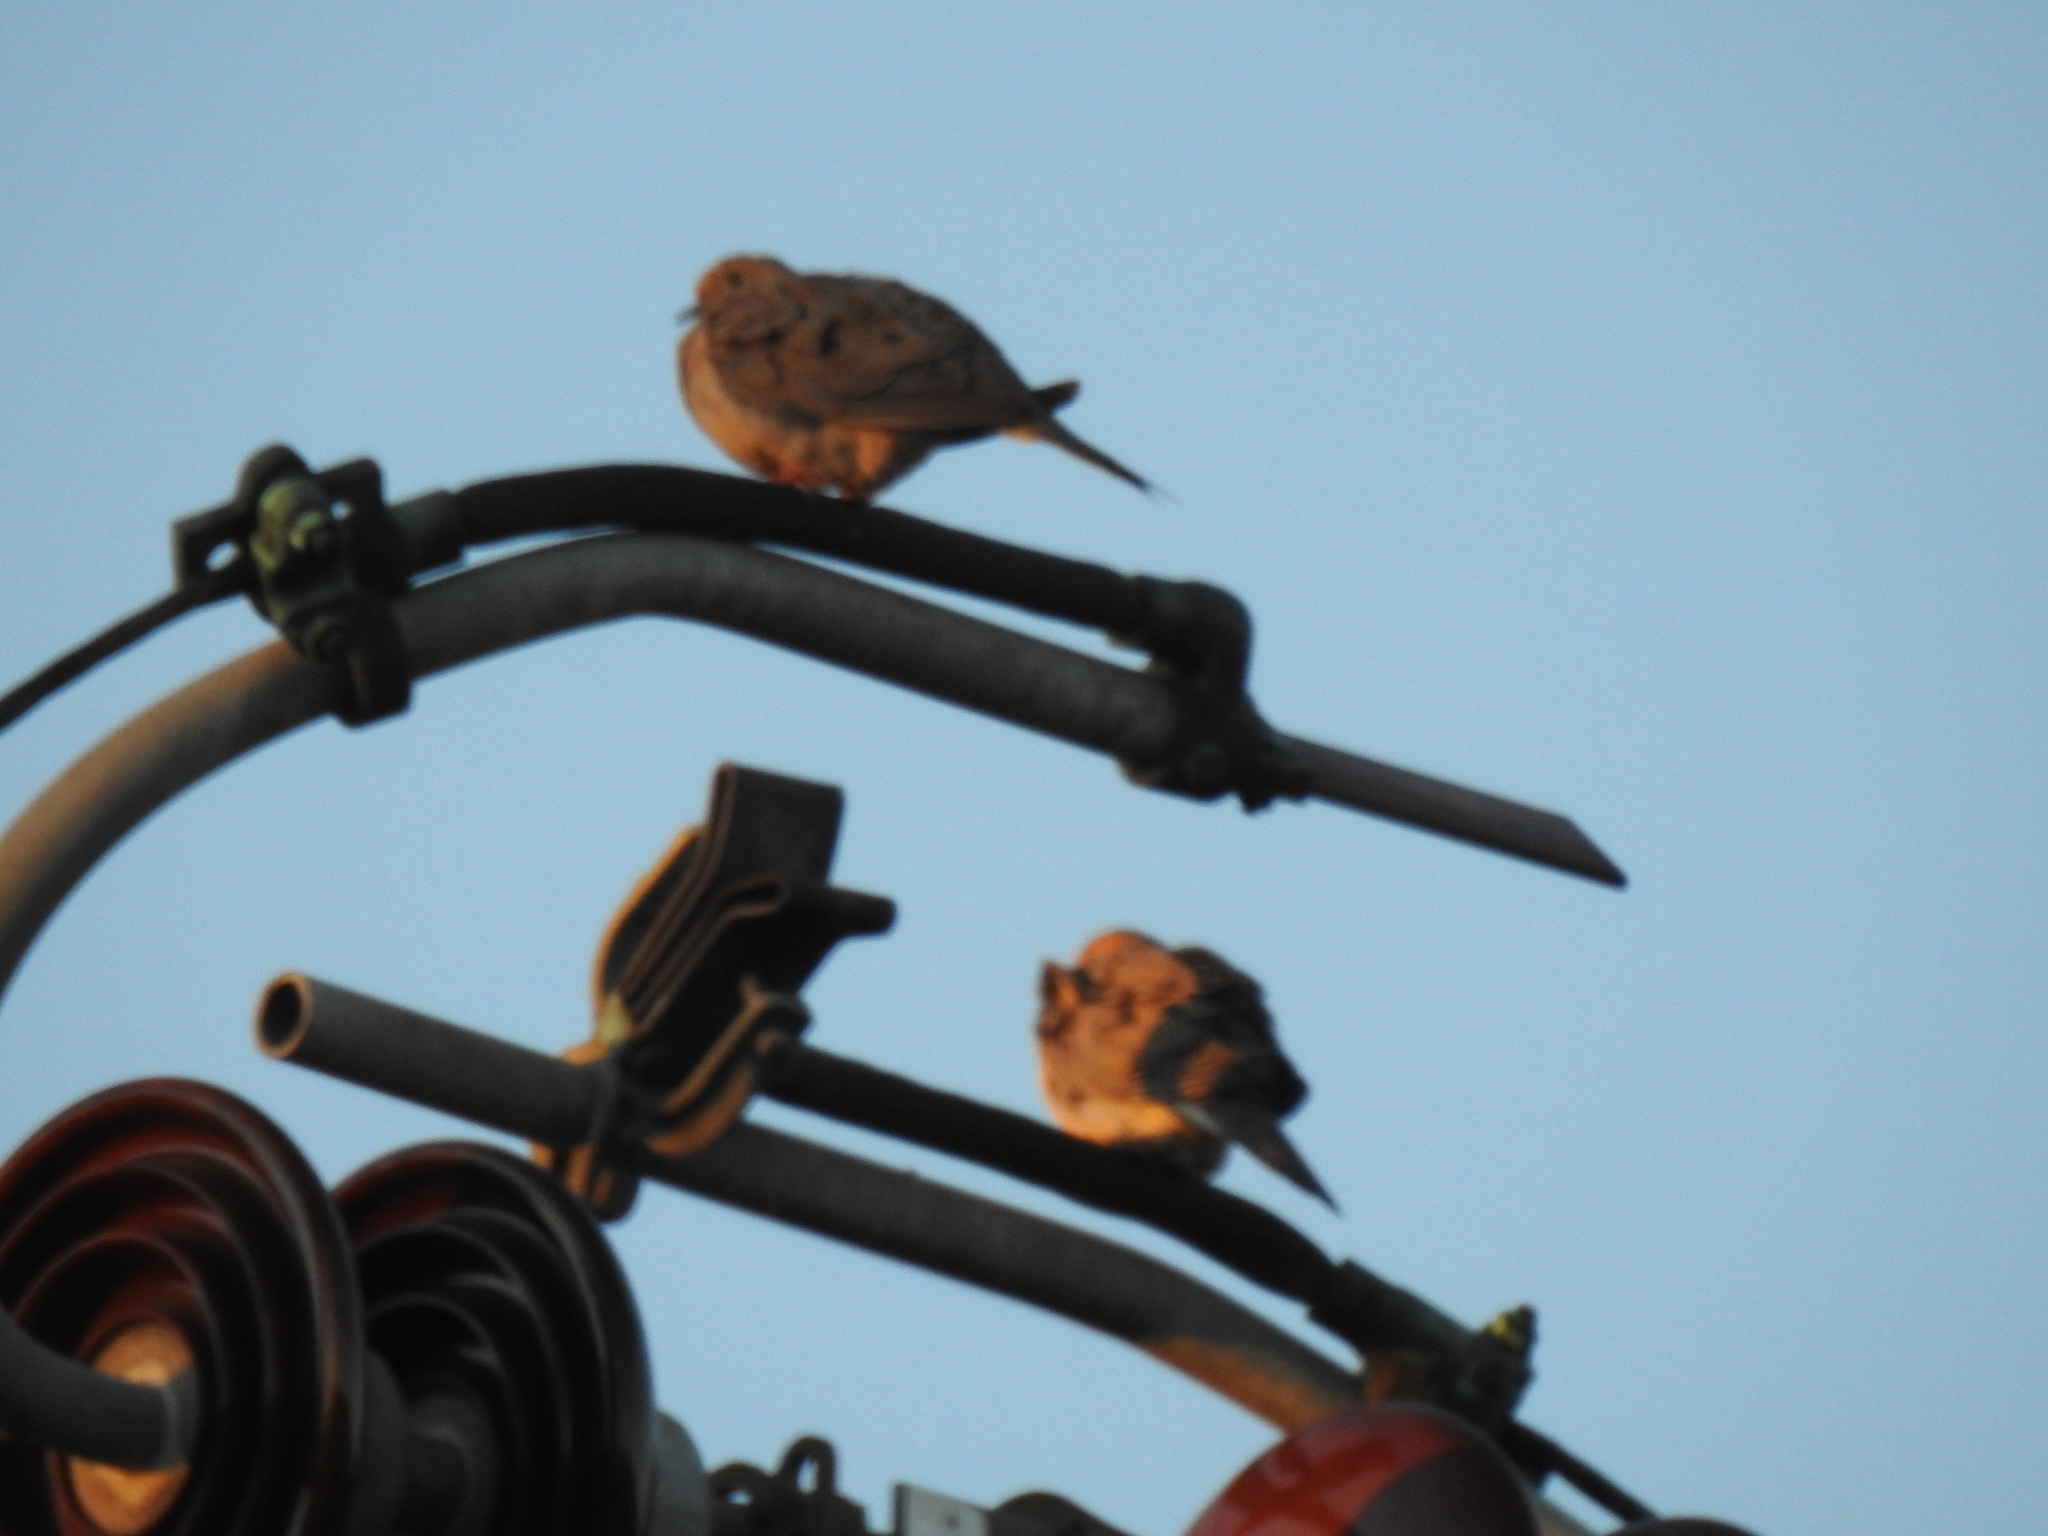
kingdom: Animalia
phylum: Chordata
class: Aves
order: Columbiformes
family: Columbidae
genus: Zenaida
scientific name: Zenaida macroura
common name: Mourning dove
